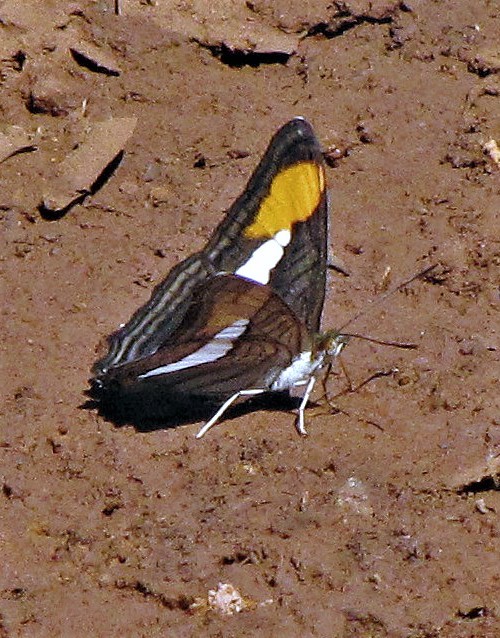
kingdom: Animalia
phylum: Arthropoda
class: Insecta
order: Lepidoptera
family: Nymphalidae
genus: Limenitis
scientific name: Limenitis abia
